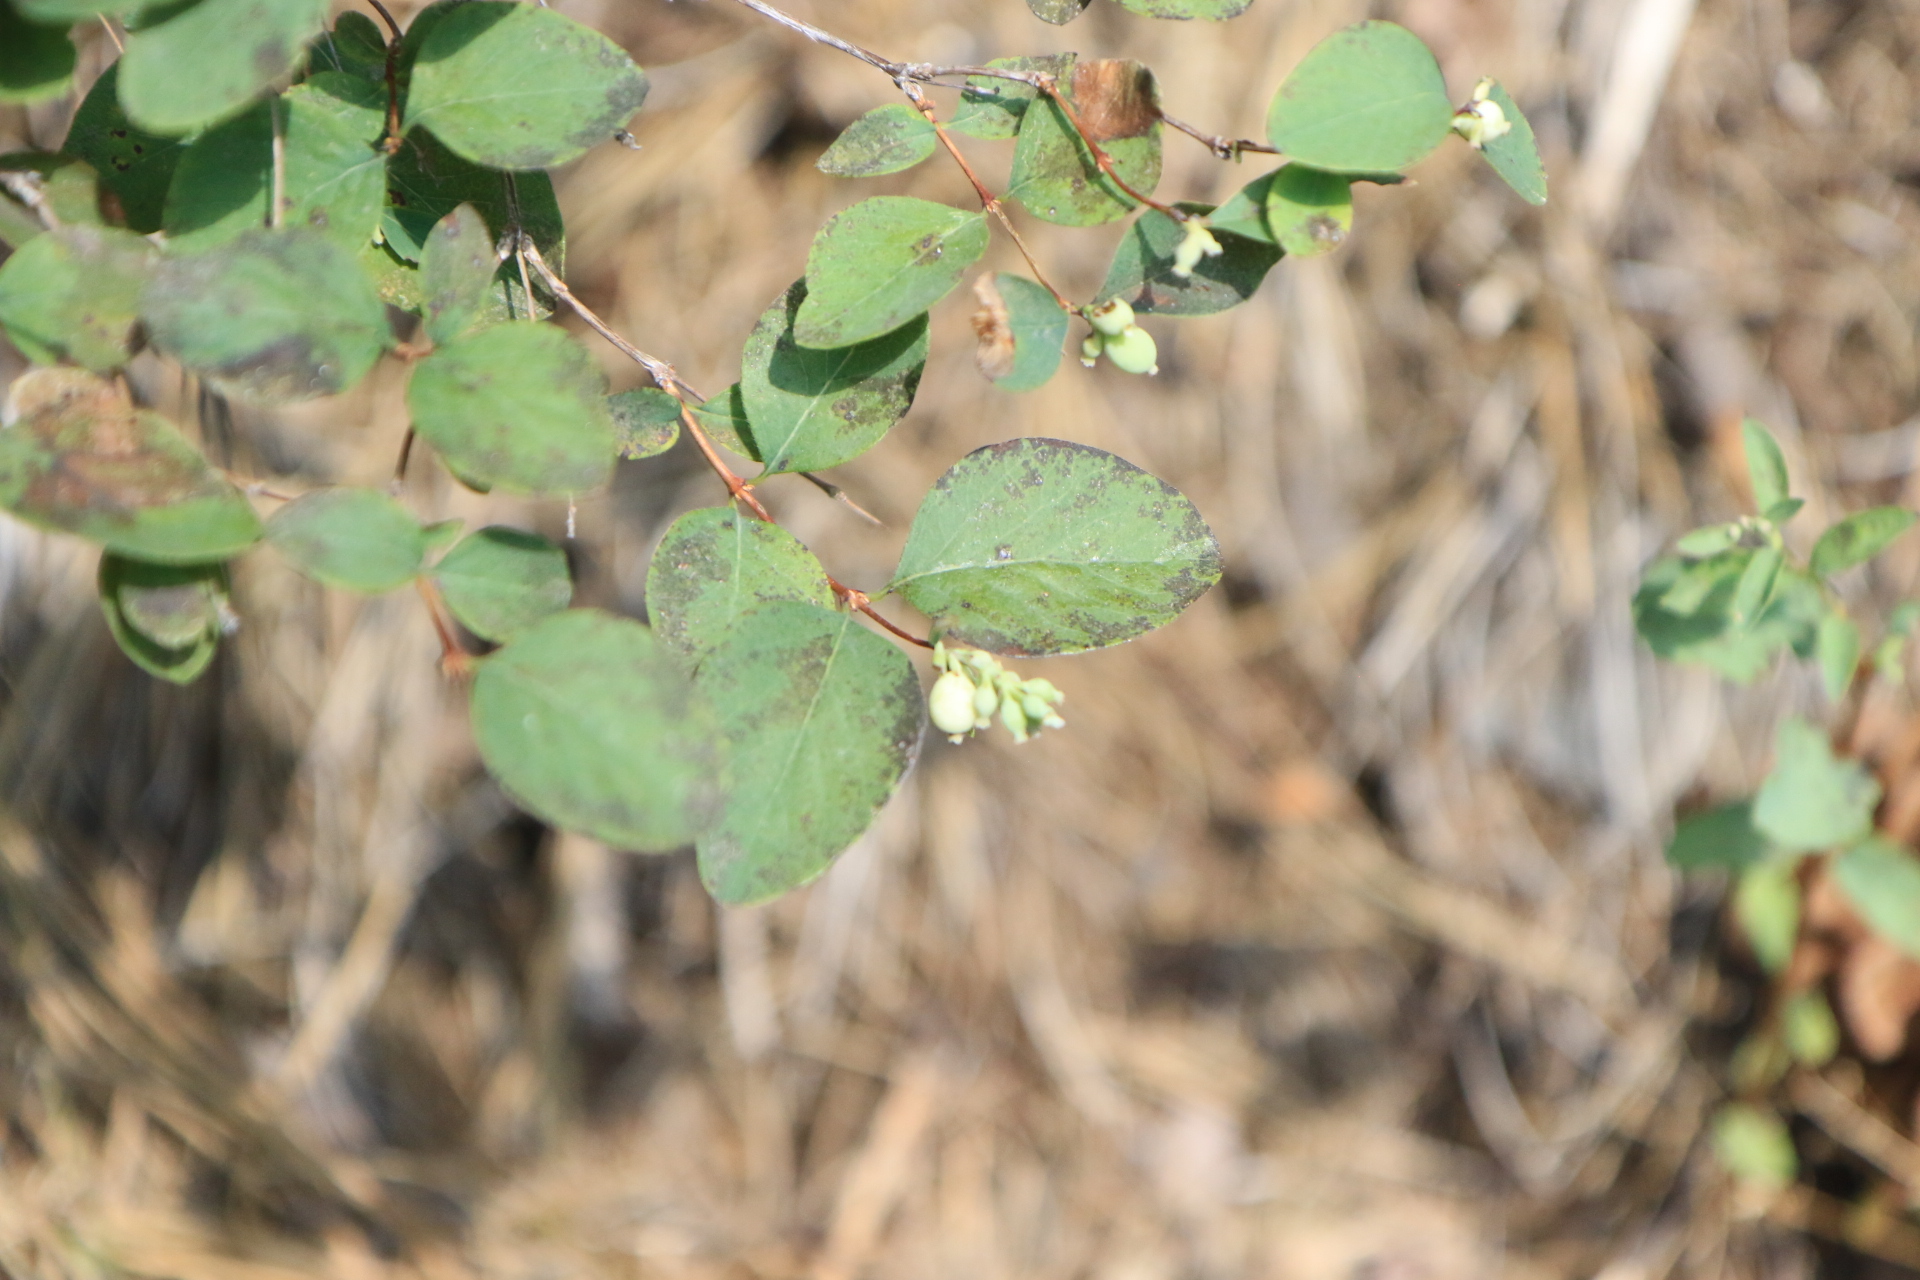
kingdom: Plantae
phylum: Tracheophyta
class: Magnoliopsida
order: Dipsacales
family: Caprifoliaceae
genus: Symphoricarpos
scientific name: Symphoricarpos albus
